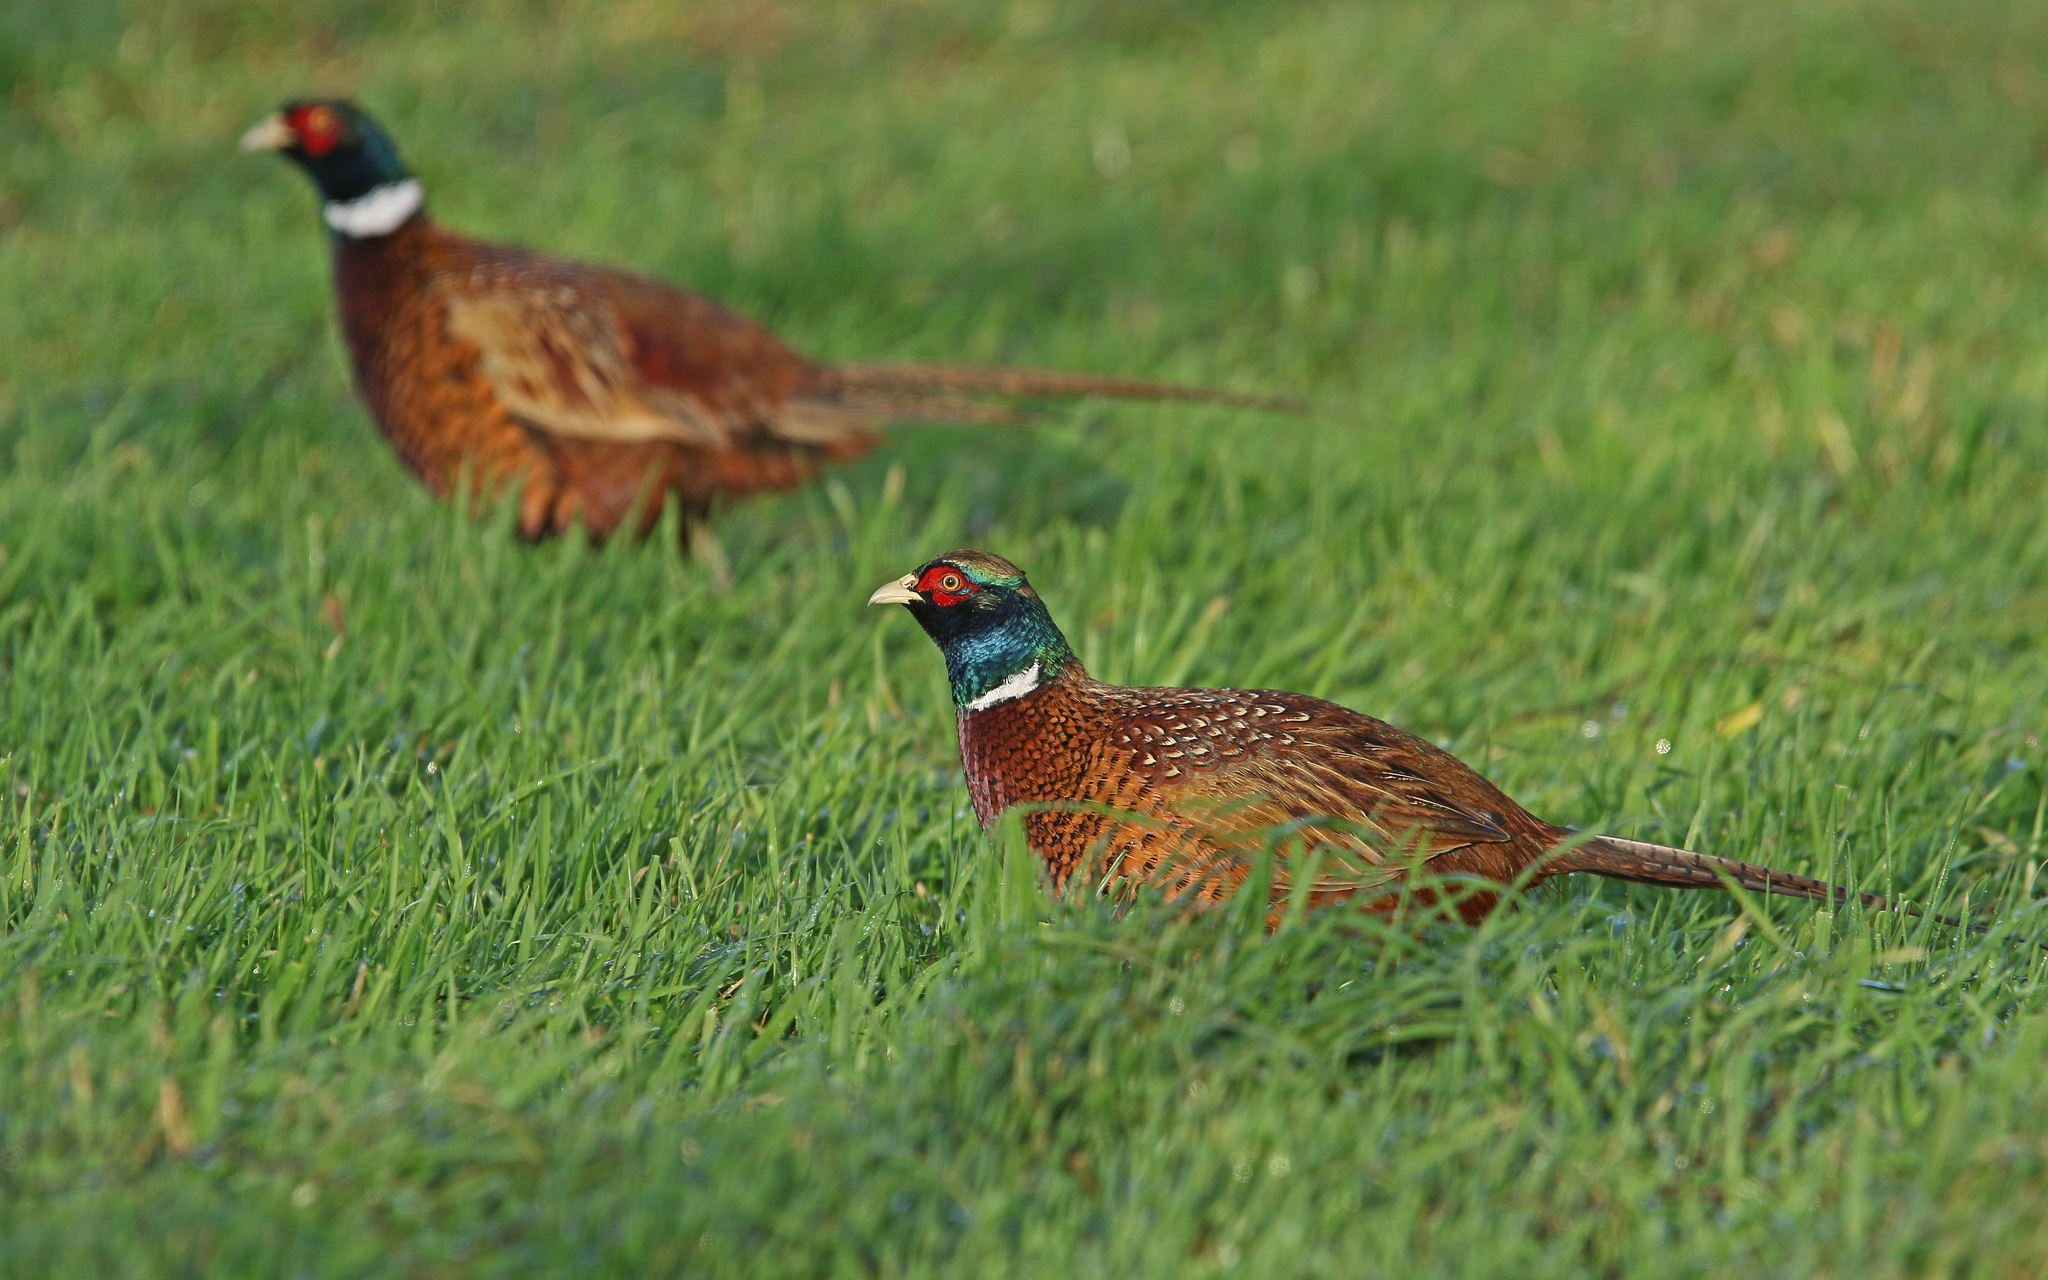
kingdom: Animalia
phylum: Chordata
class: Aves
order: Galliformes
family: Phasianidae
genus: Phasianus
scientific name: Phasianus colchicus
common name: Common pheasant
